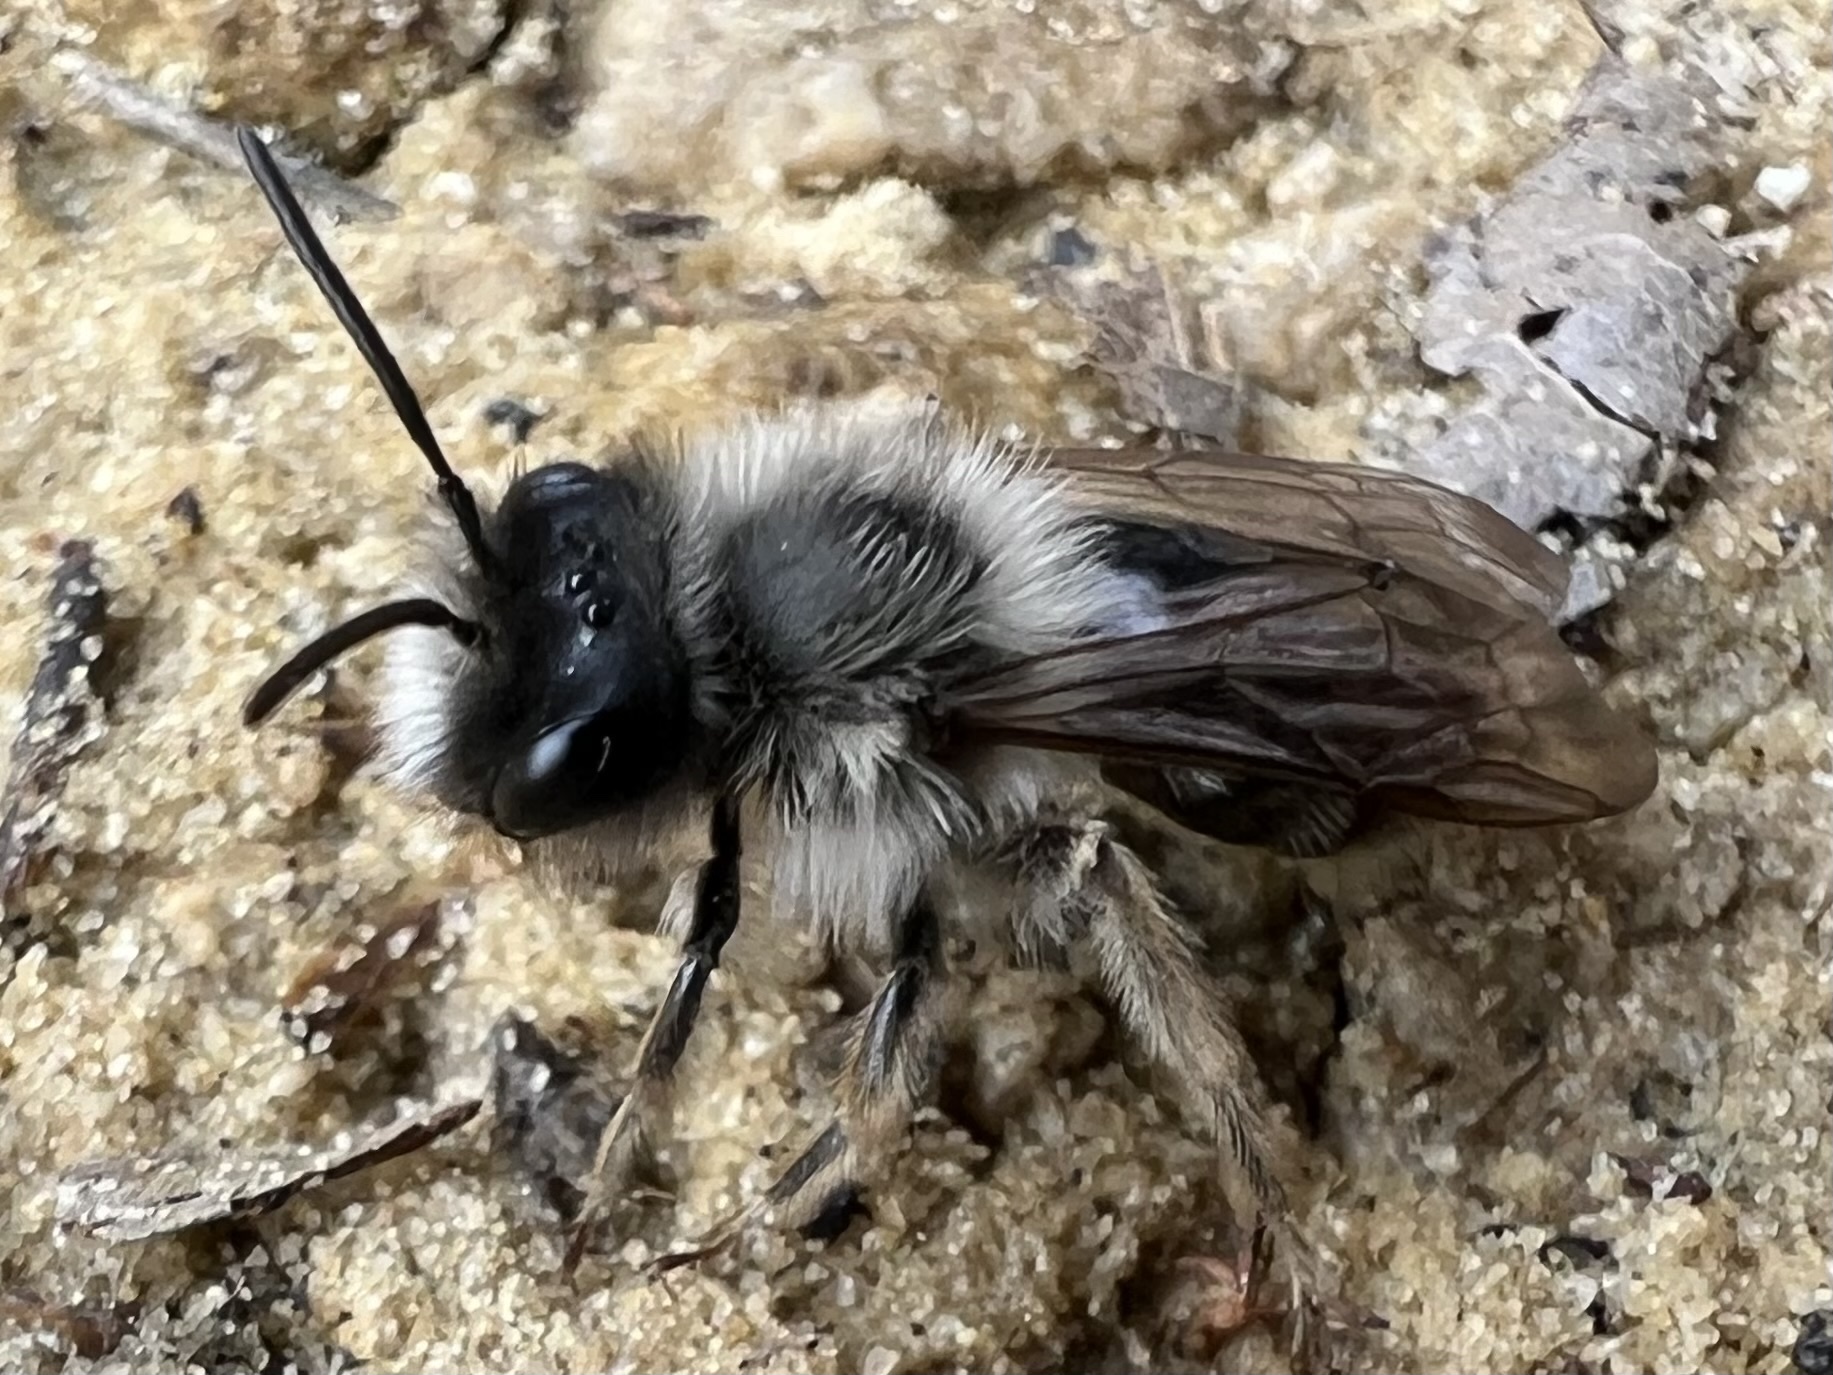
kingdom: Animalia
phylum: Arthropoda
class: Insecta
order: Hymenoptera
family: Andrenidae
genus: Andrena
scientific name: Andrena cineraria
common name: Ashy mining bee
